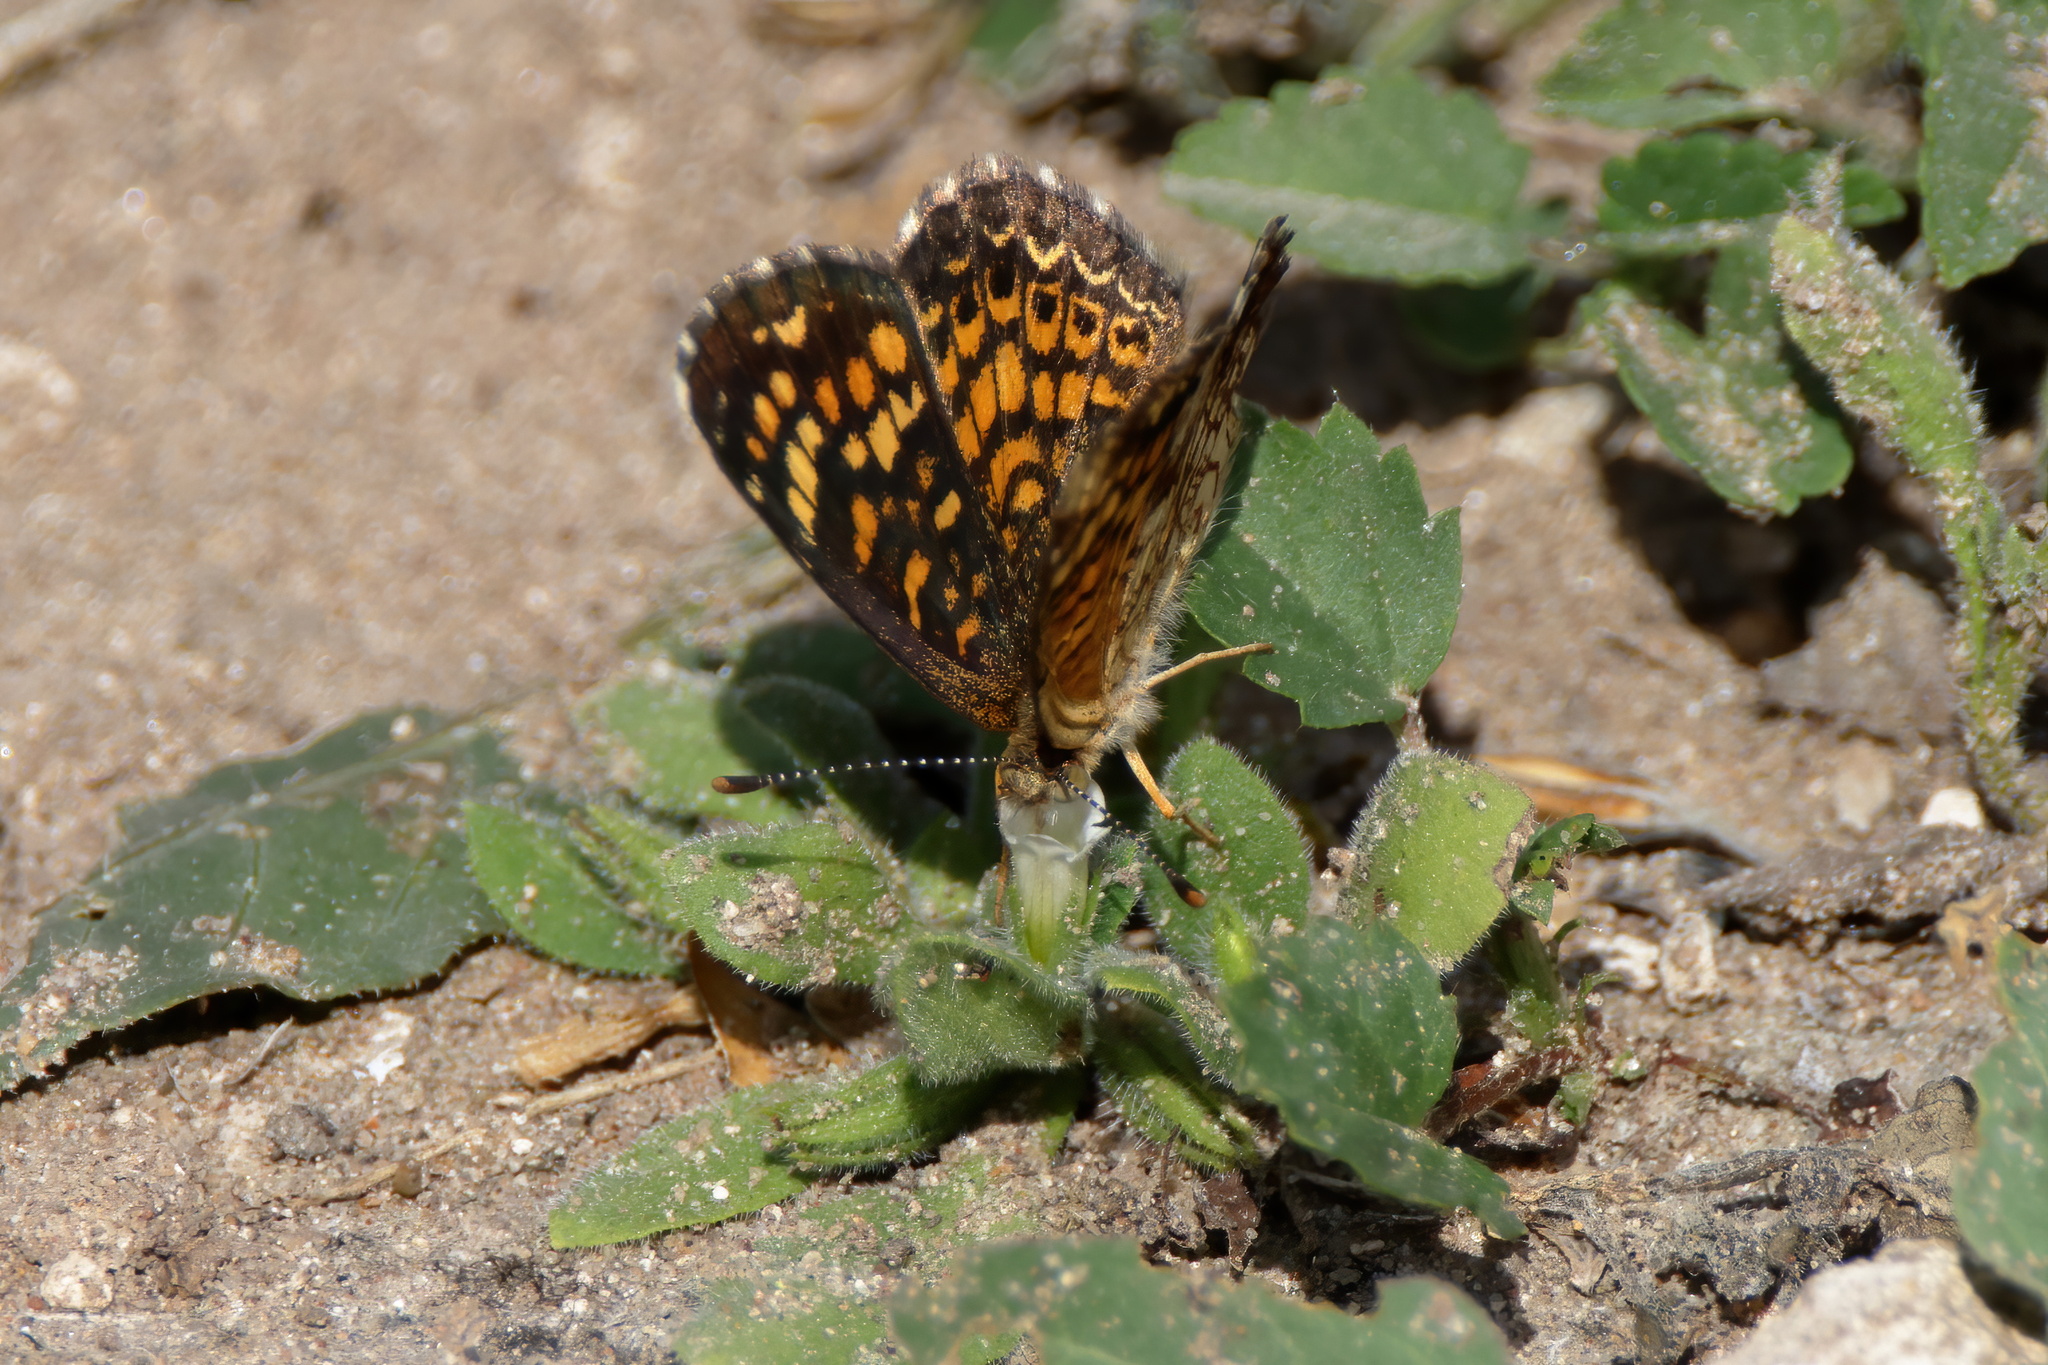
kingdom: Animalia
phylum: Arthropoda
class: Insecta
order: Lepidoptera
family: Nymphalidae
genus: Phyciodes
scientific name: Phyciodes vesta
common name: Vesta crescent
